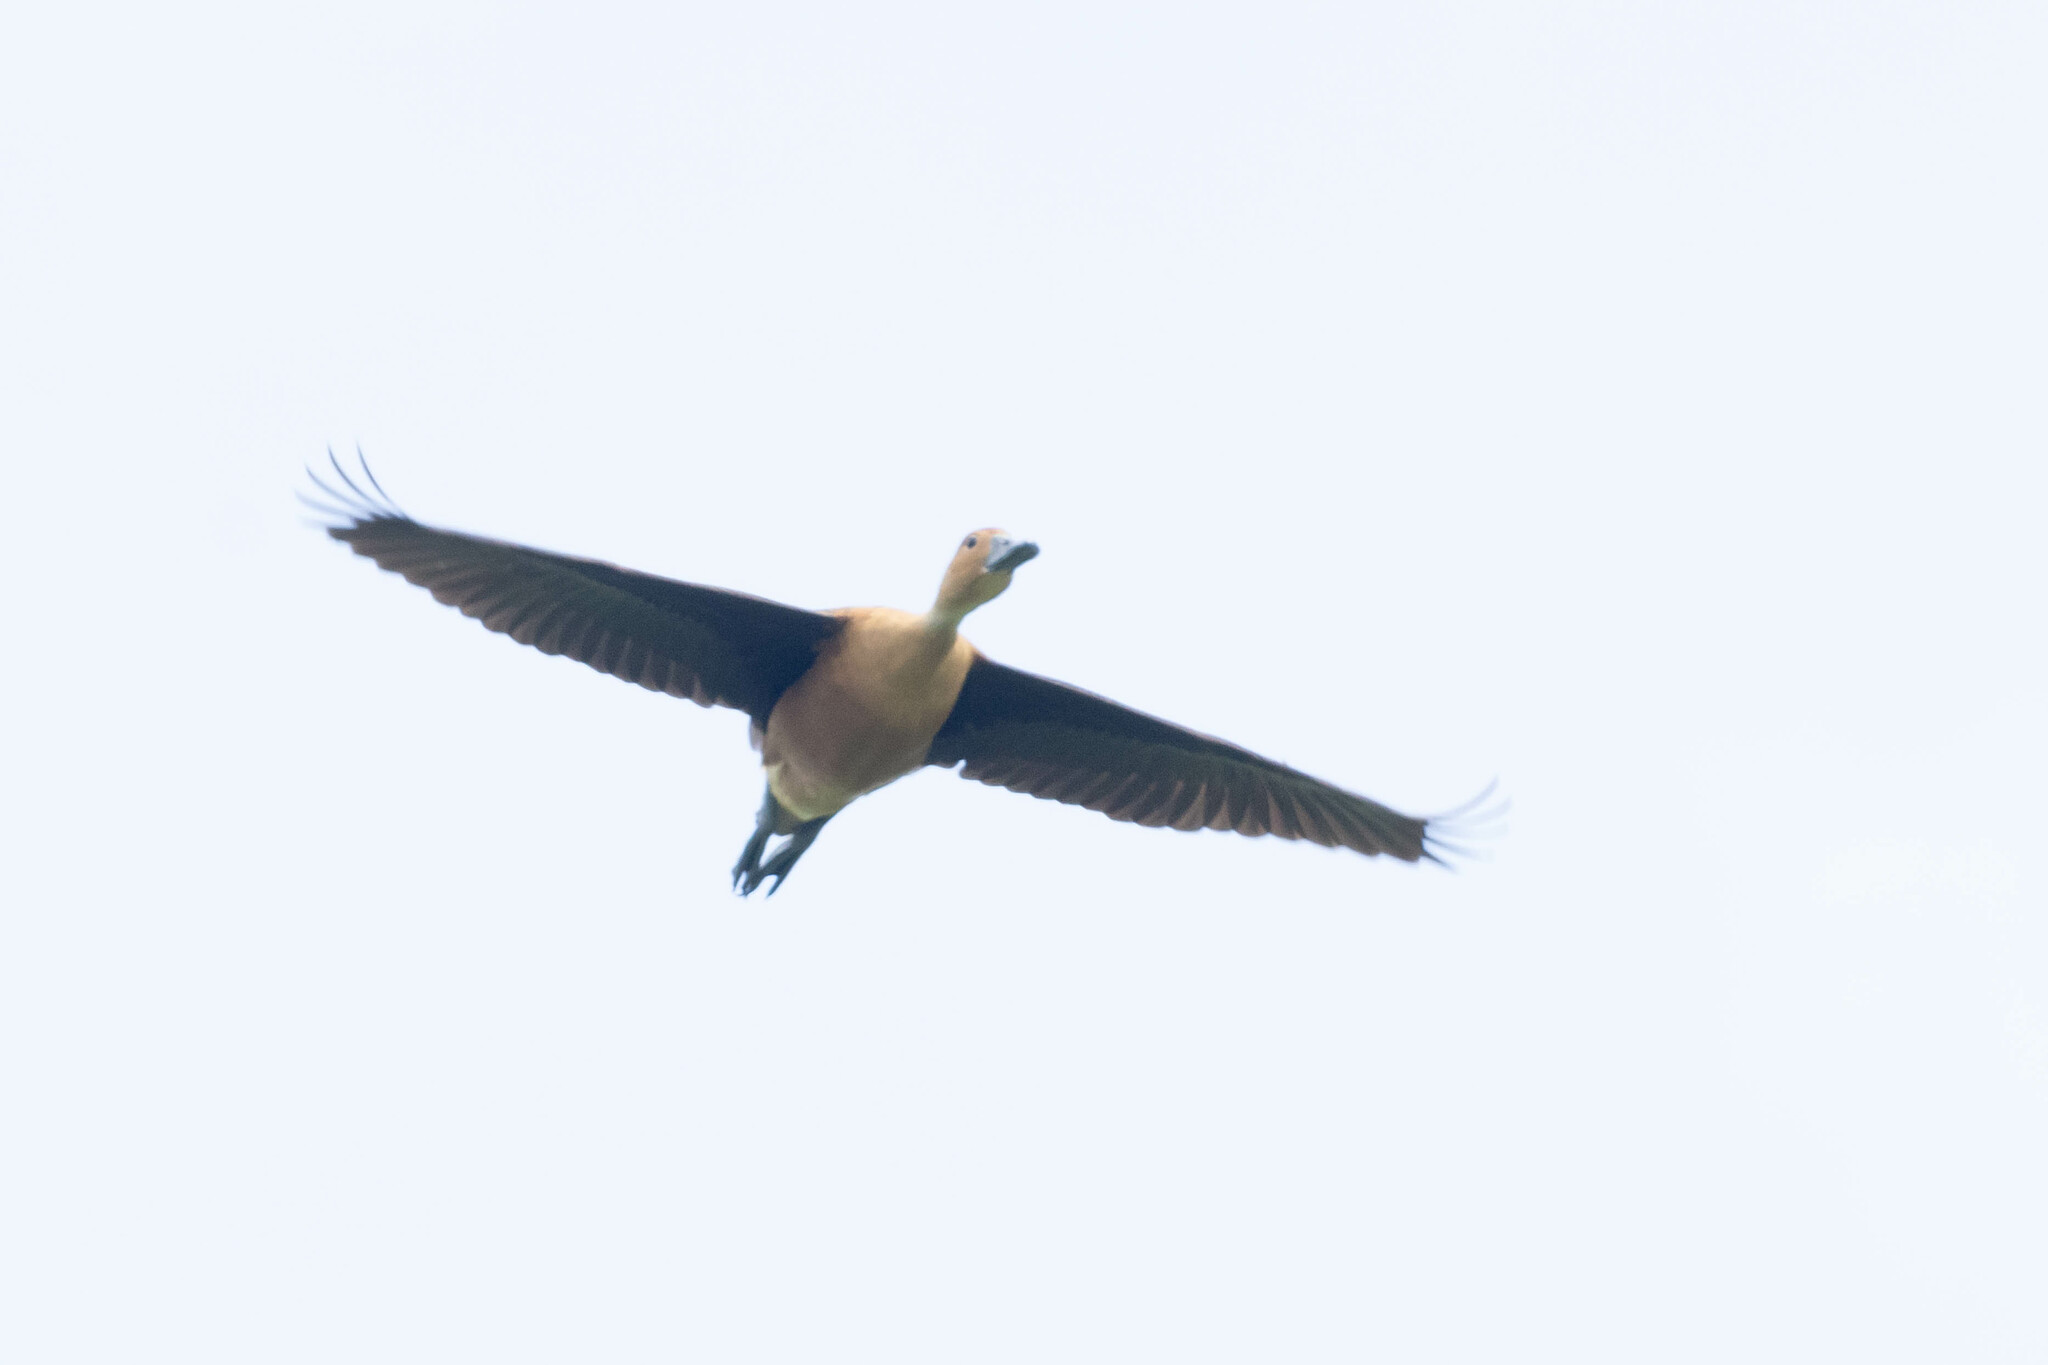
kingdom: Animalia
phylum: Chordata
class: Aves
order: Anseriformes
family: Anatidae
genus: Dendrocygna
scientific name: Dendrocygna bicolor
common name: Fulvous whistling duck
